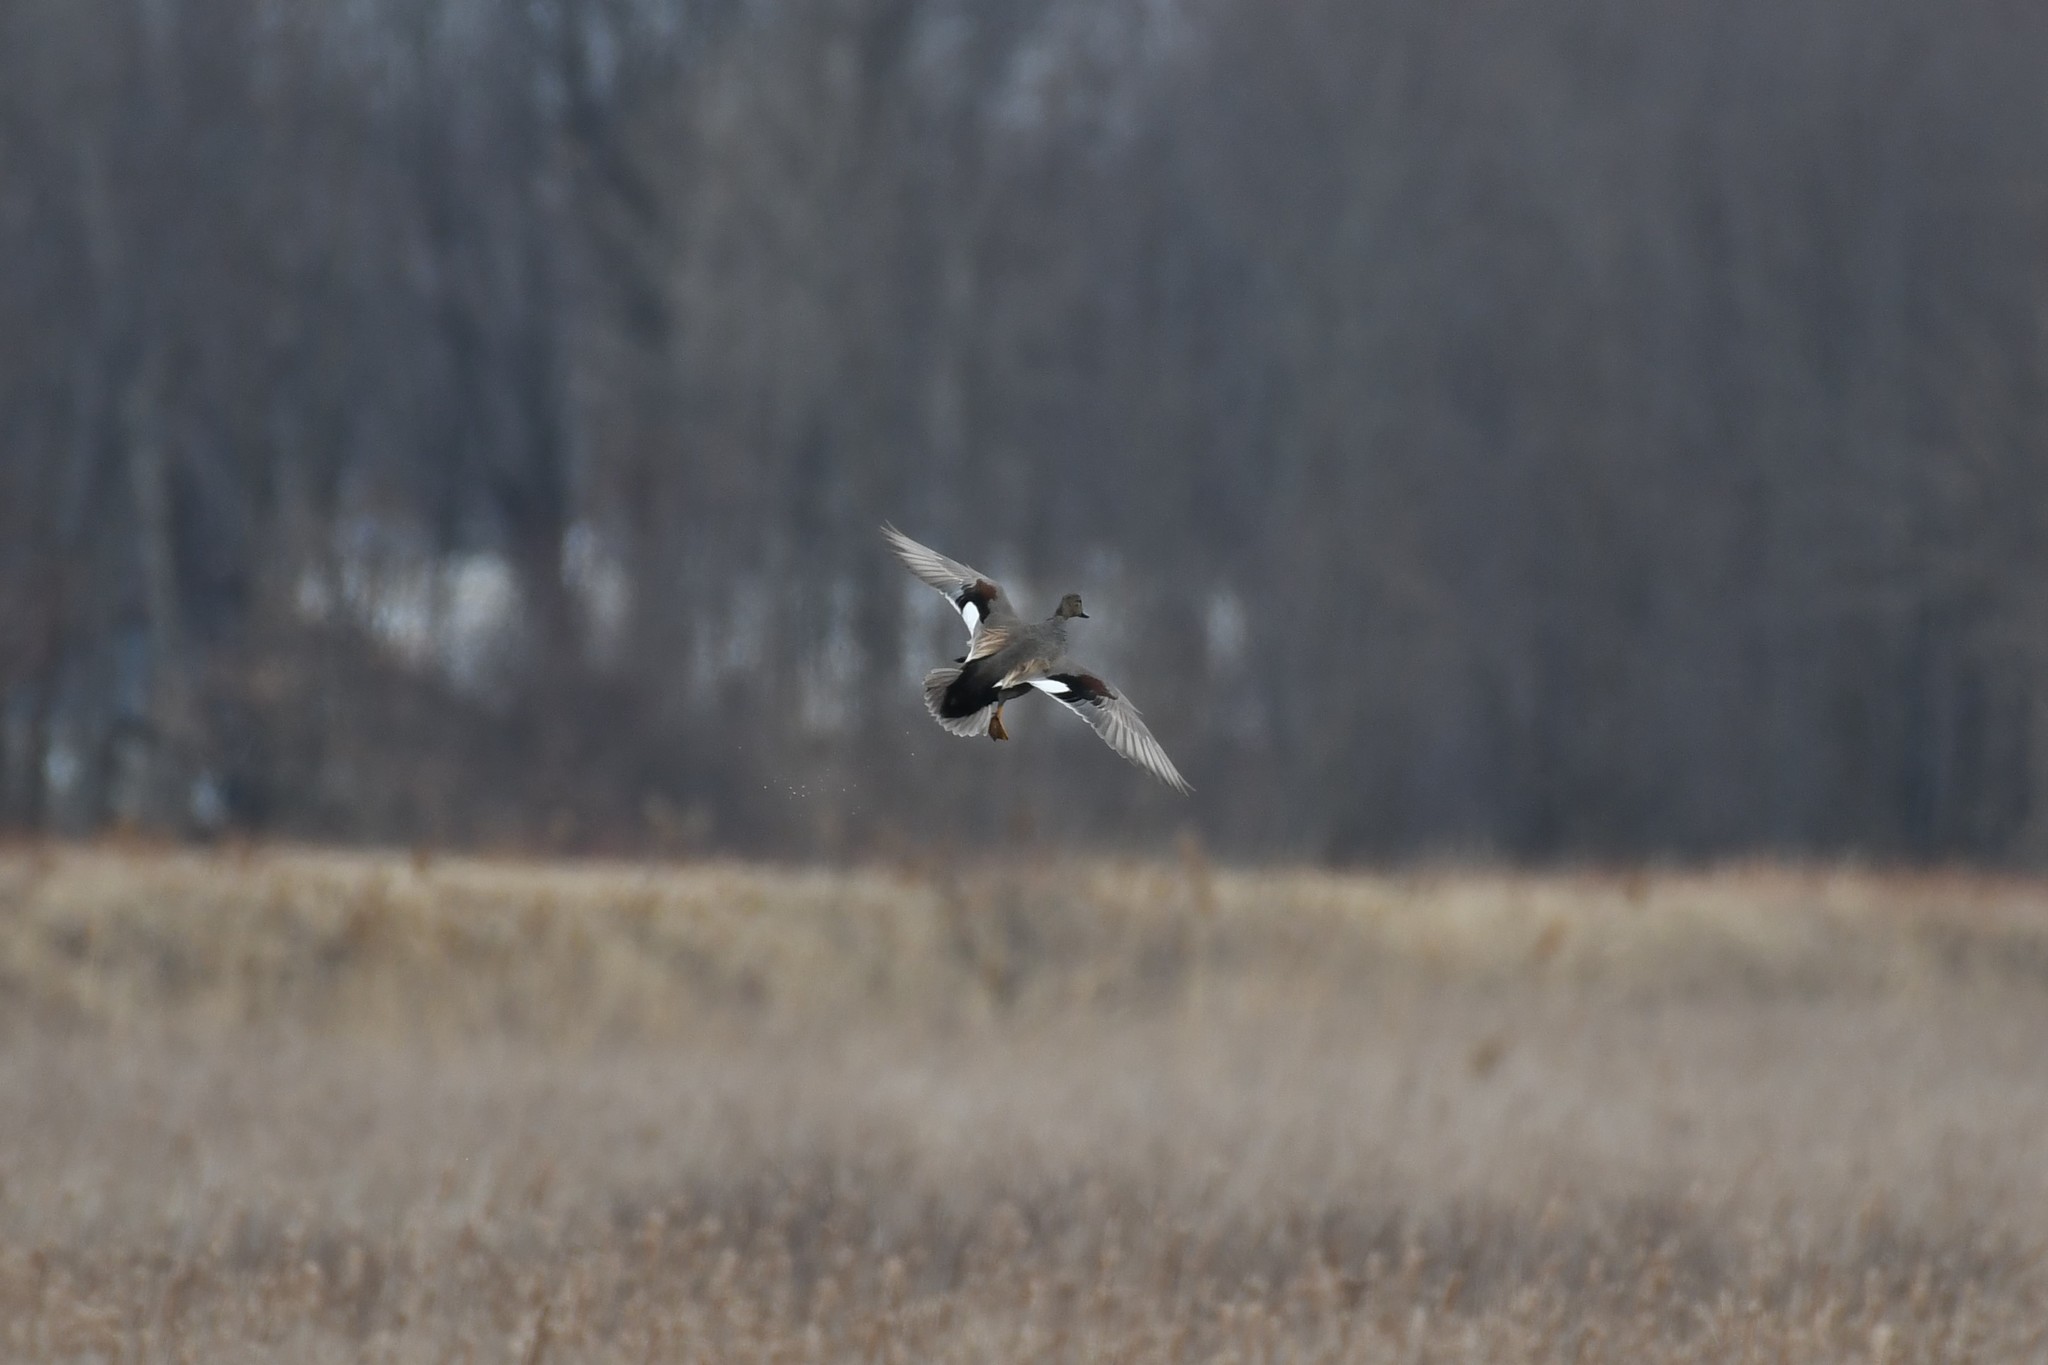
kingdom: Animalia
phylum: Chordata
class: Aves
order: Anseriformes
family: Anatidae
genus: Mareca
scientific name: Mareca strepera
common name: Gadwall
